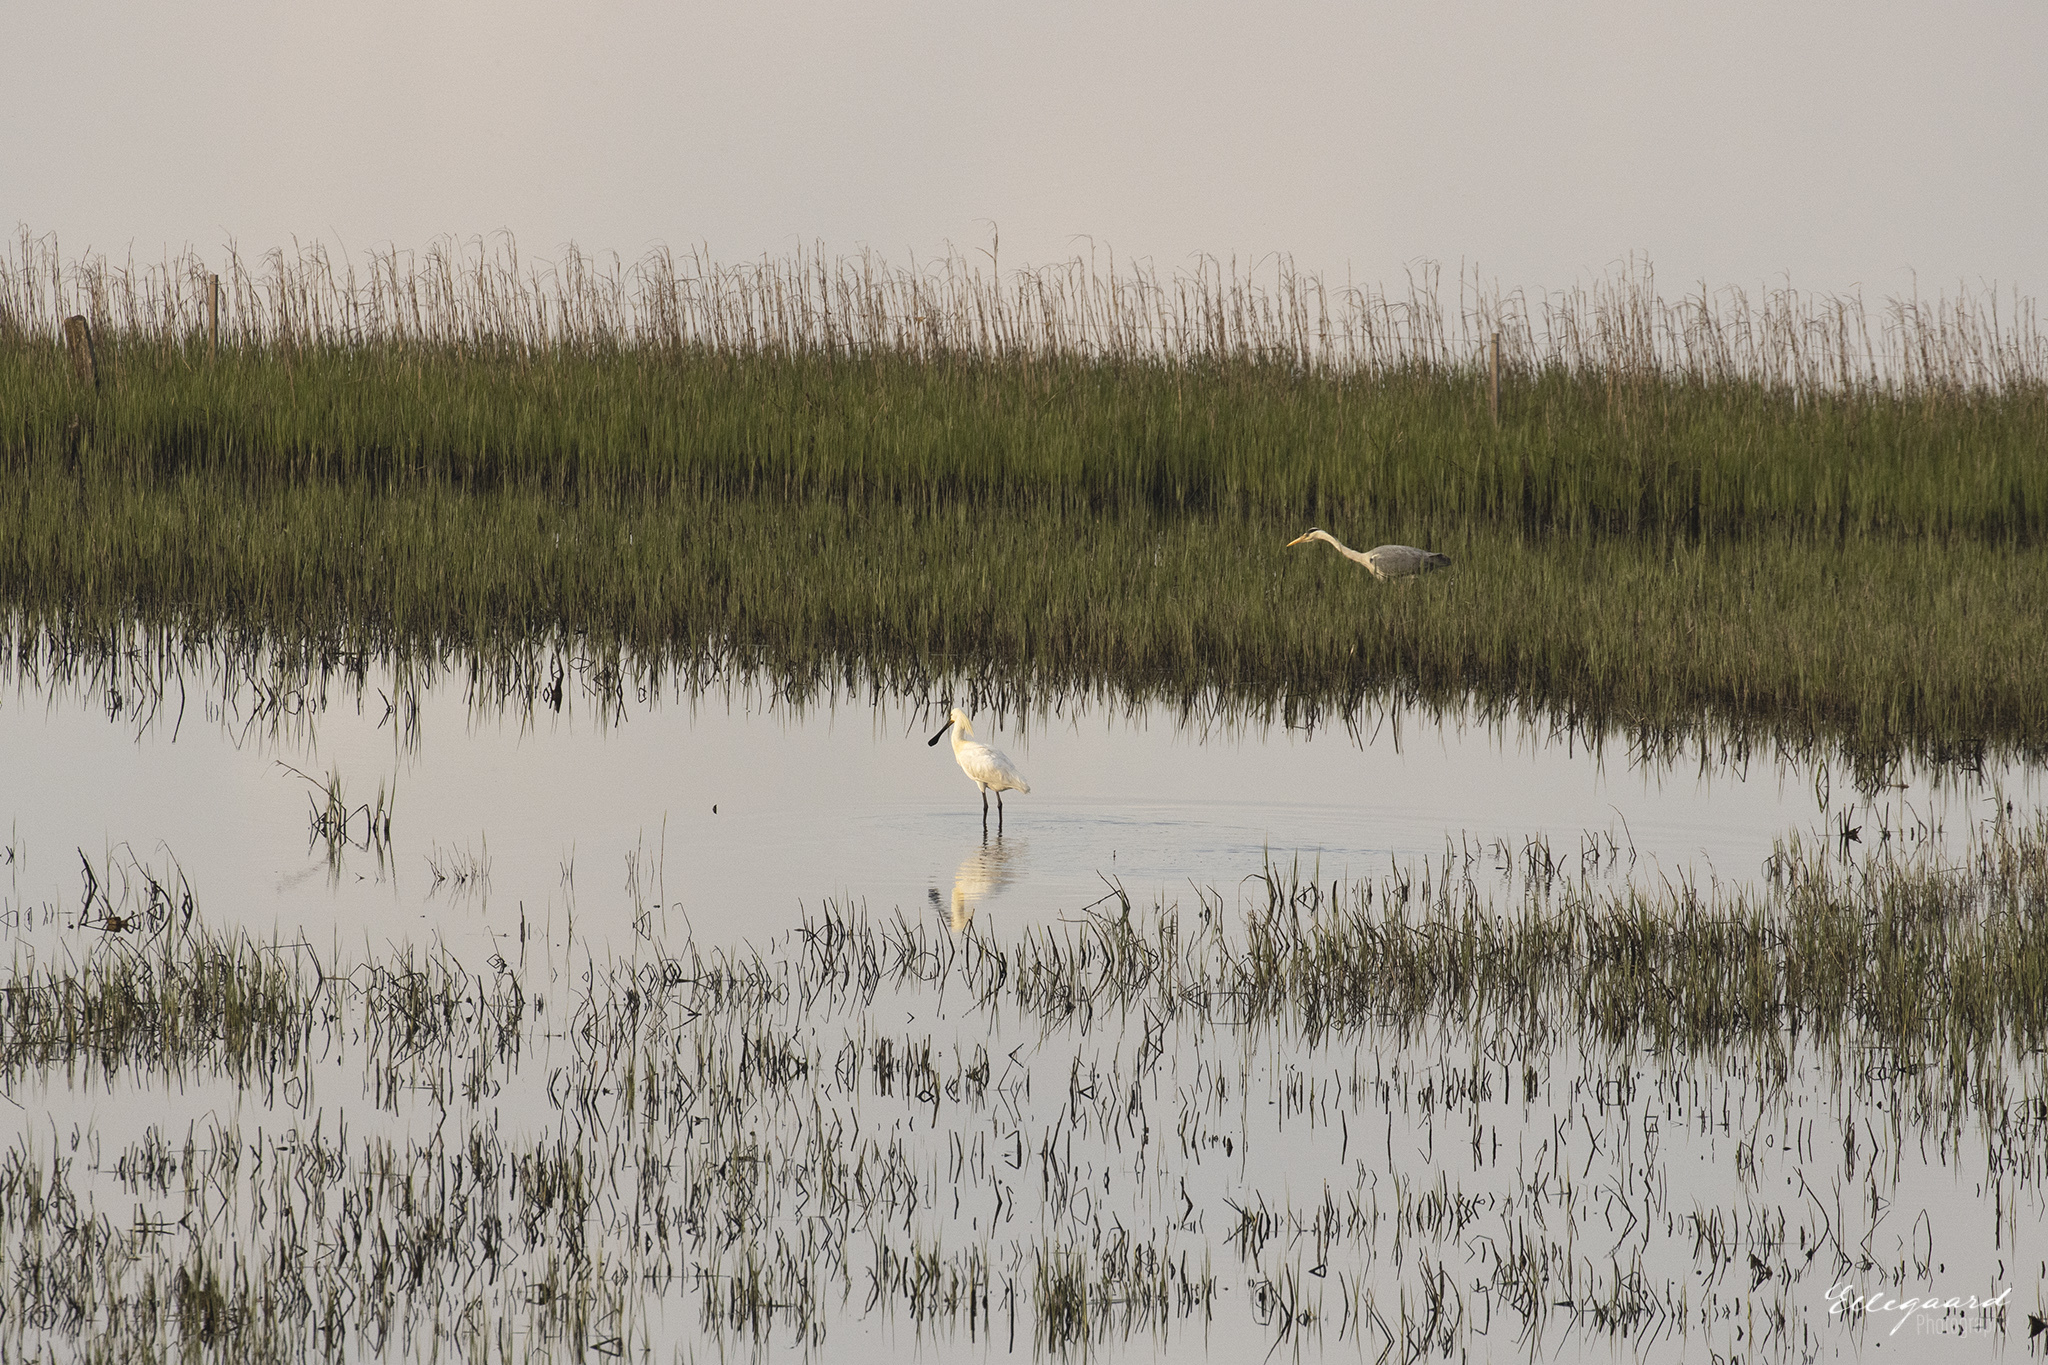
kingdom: Animalia
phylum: Chordata
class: Aves
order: Pelecaniformes
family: Threskiornithidae
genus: Platalea
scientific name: Platalea leucorodia
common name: Eurasian spoonbill
